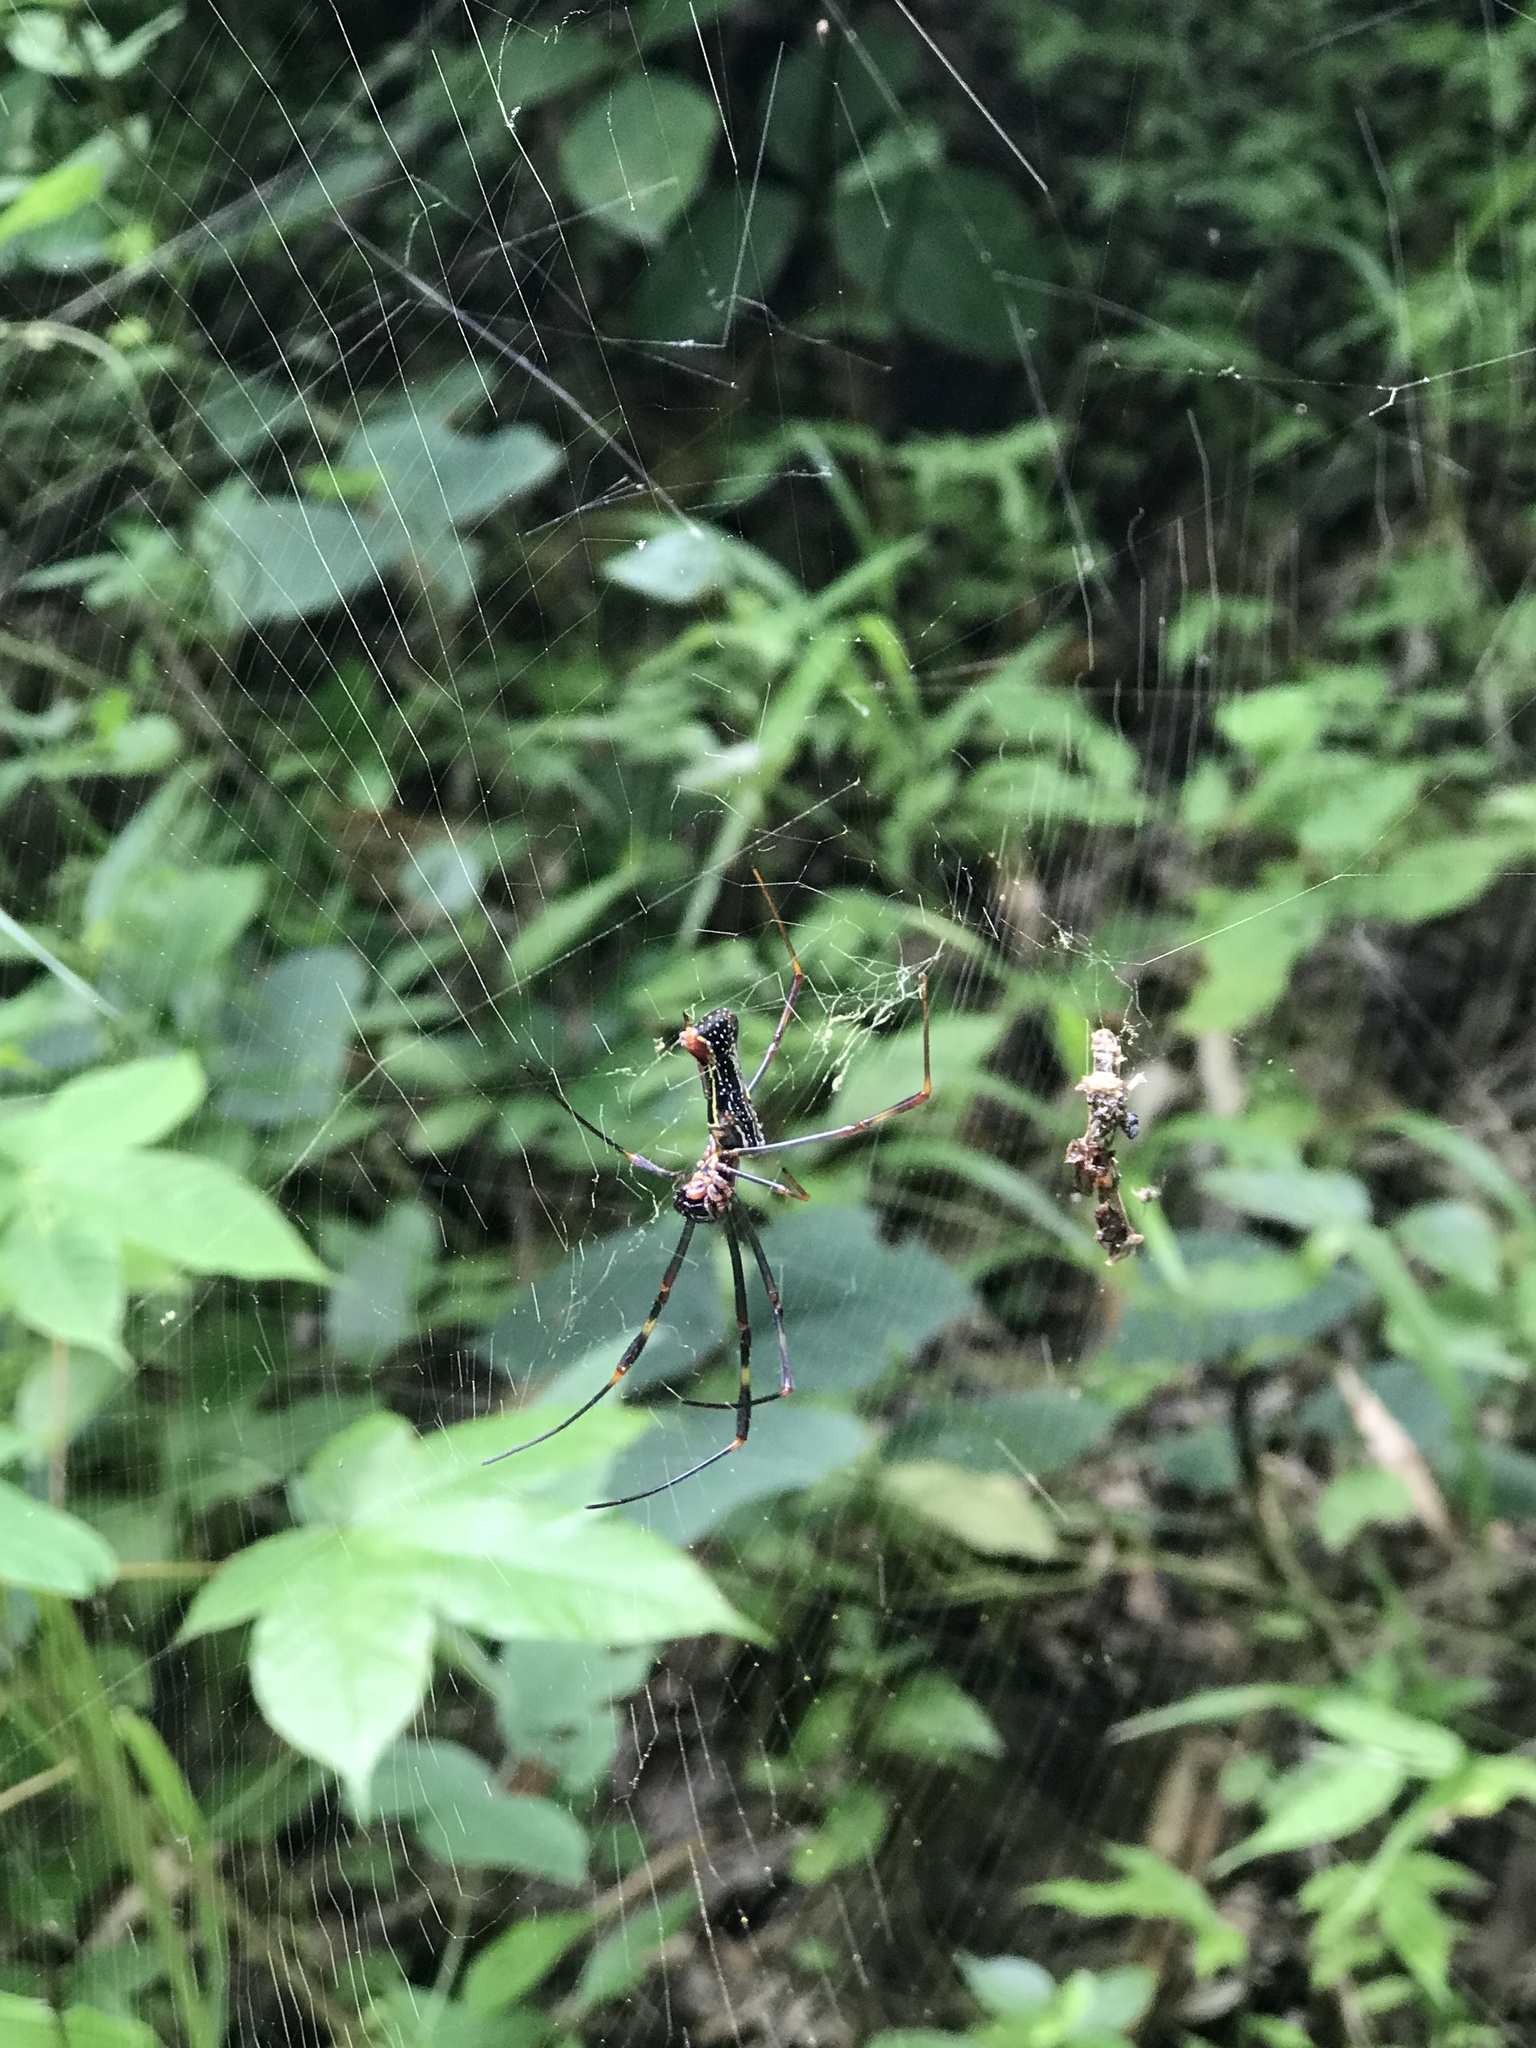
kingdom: Animalia
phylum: Arthropoda
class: Arachnida
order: Araneae
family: Araneidae
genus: Trichonephila
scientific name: Trichonephila clavipes
